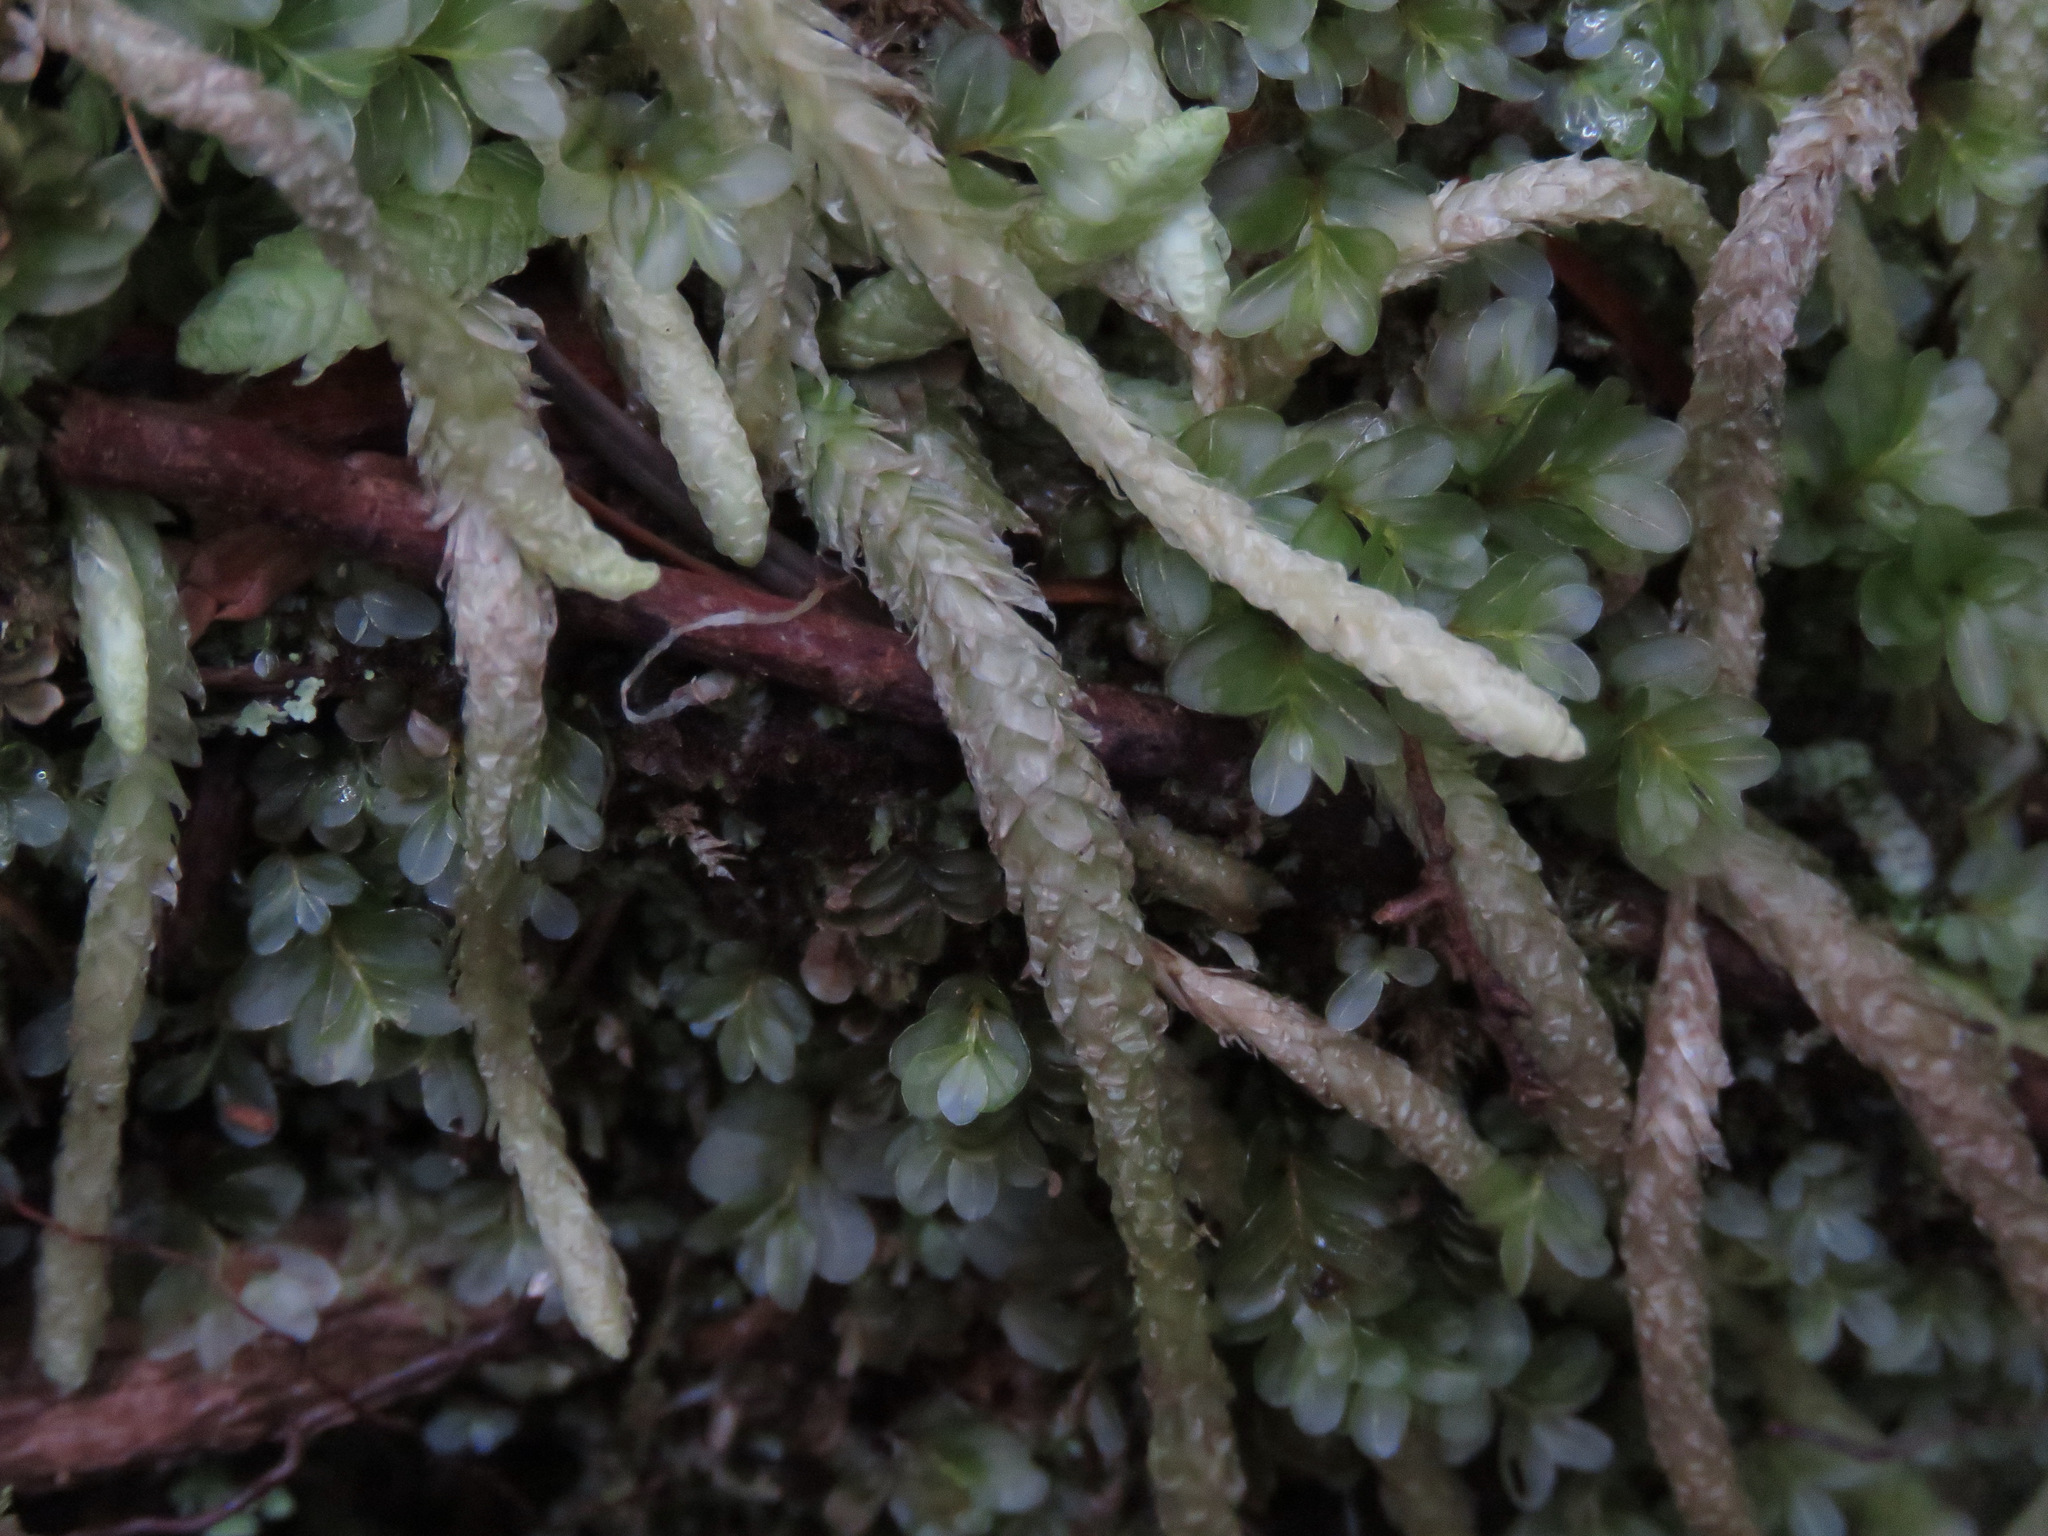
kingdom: Plantae
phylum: Bryophyta
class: Bryopsida
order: Hypnales
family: Plagiotheciaceae
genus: Plagiothecium
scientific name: Plagiothecium undulatum
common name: Waved silk-moss
